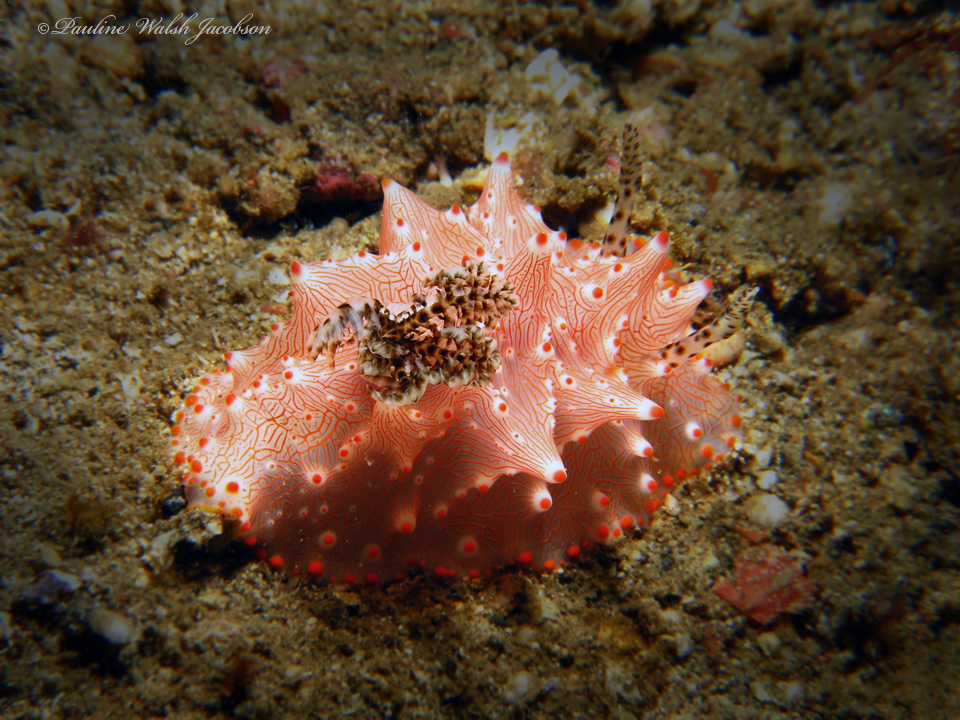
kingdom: Animalia
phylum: Mollusca
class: Gastropoda
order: Nudibranchia
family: Discodorididae
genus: Halgerda
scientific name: Halgerda batangas
